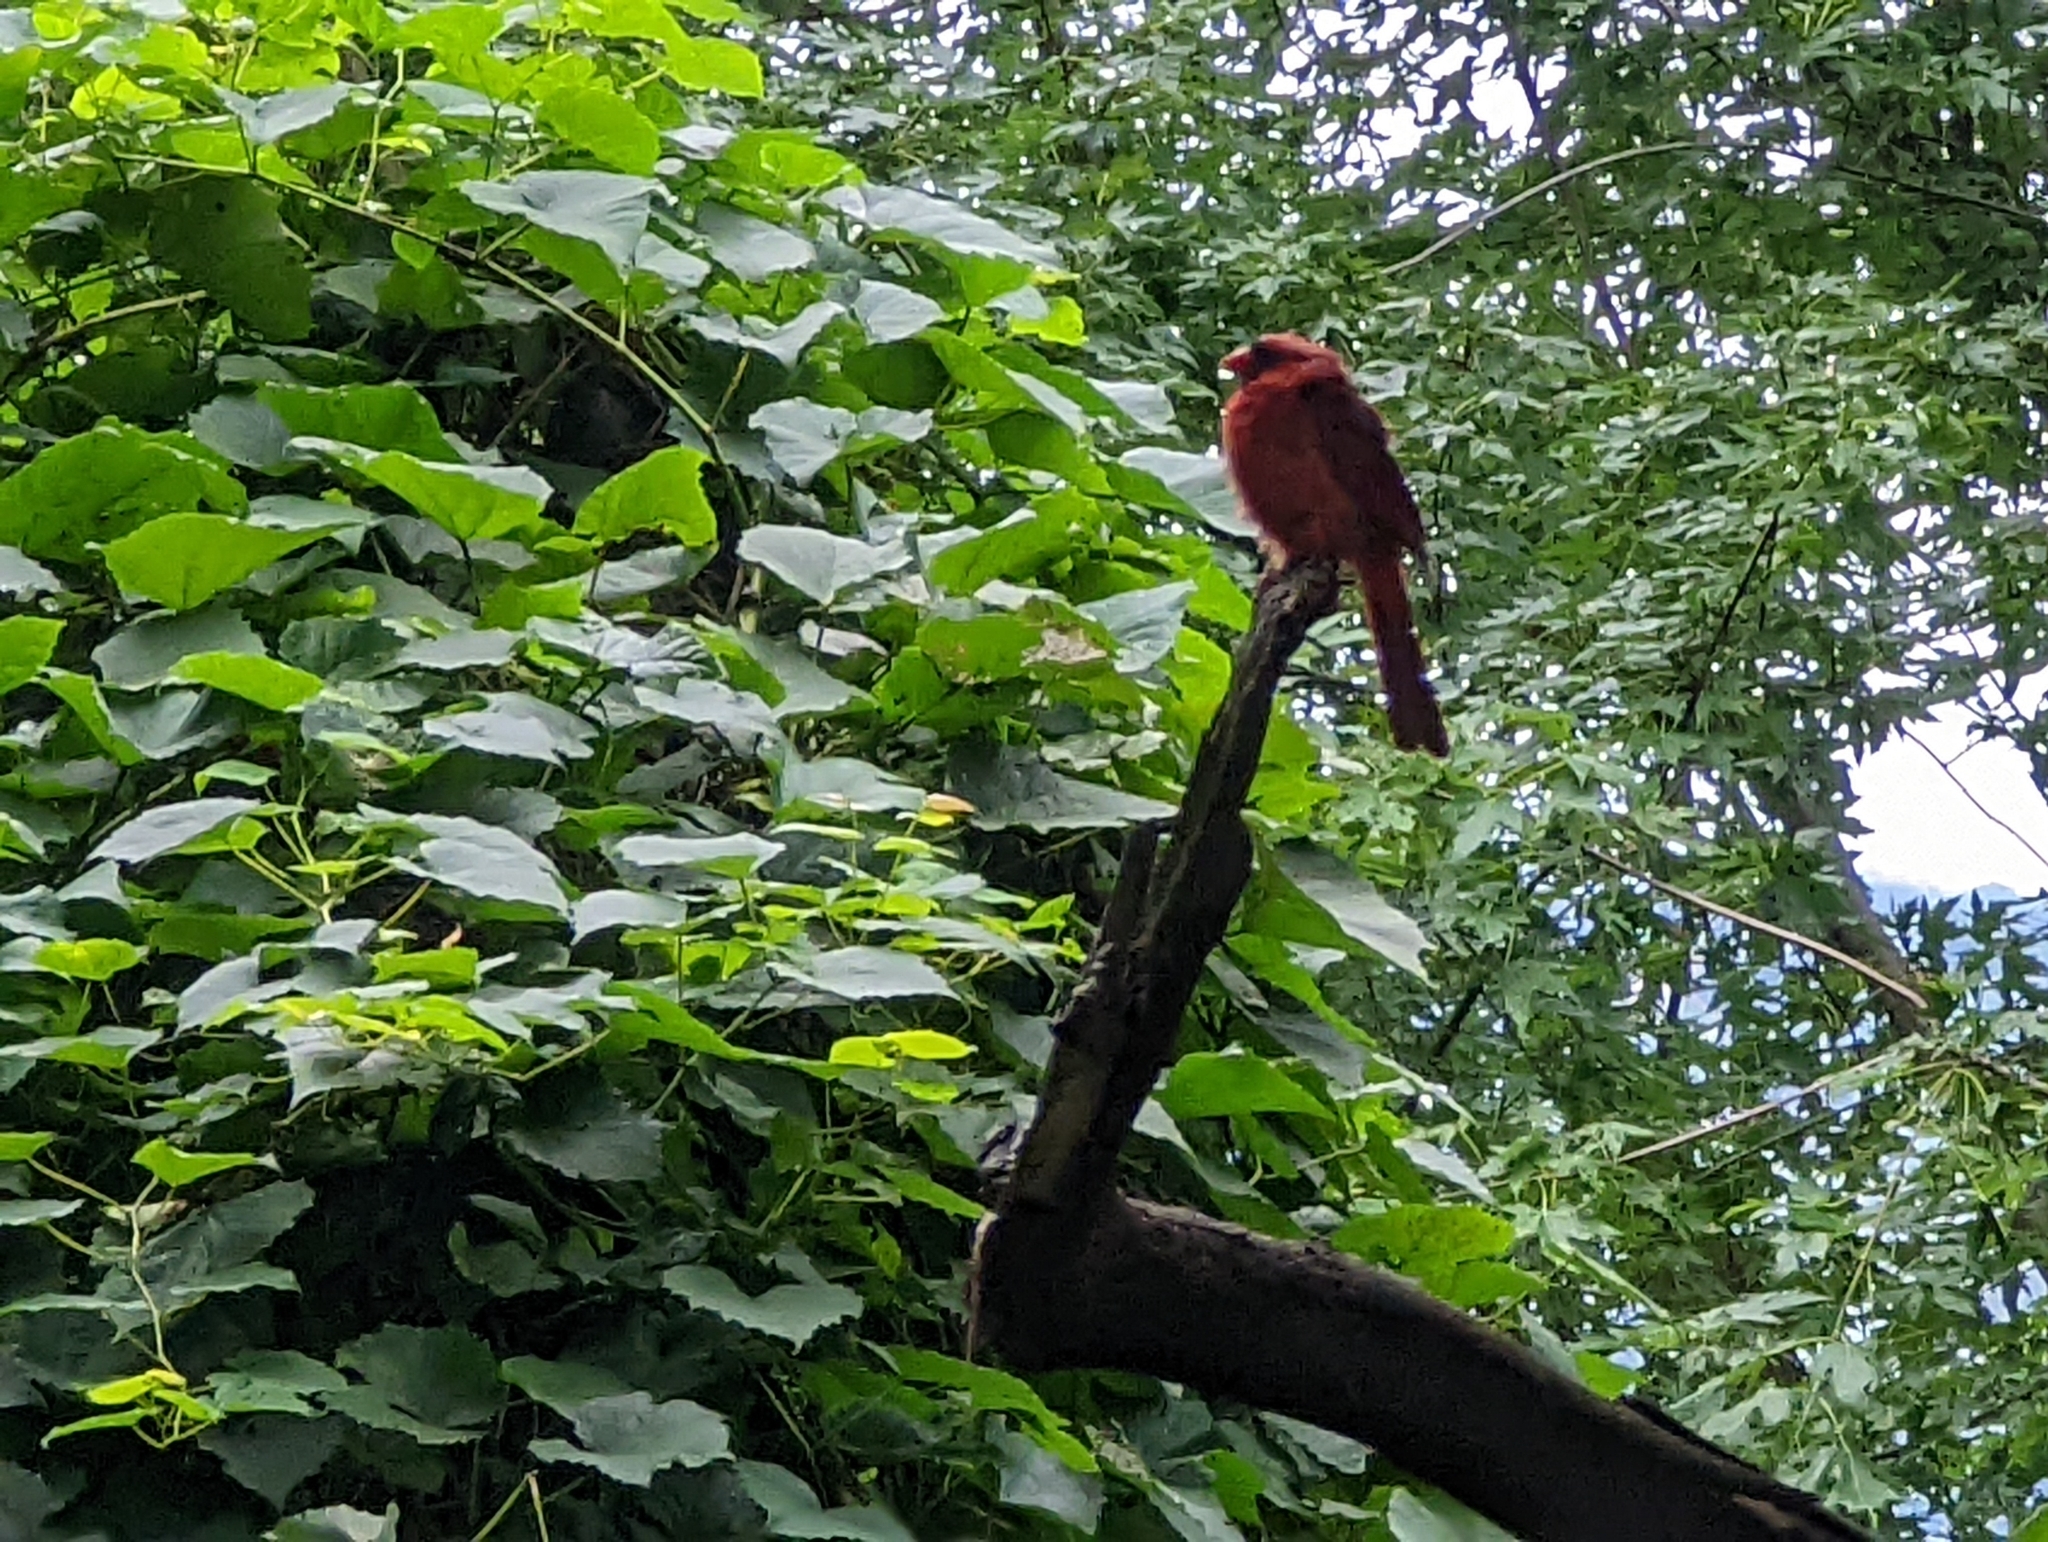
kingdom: Animalia
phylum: Chordata
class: Aves
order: Passeriformes
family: Cardinalidae
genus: Cardinalis
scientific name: Cardinalis cardinalis
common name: Northern cardinal
